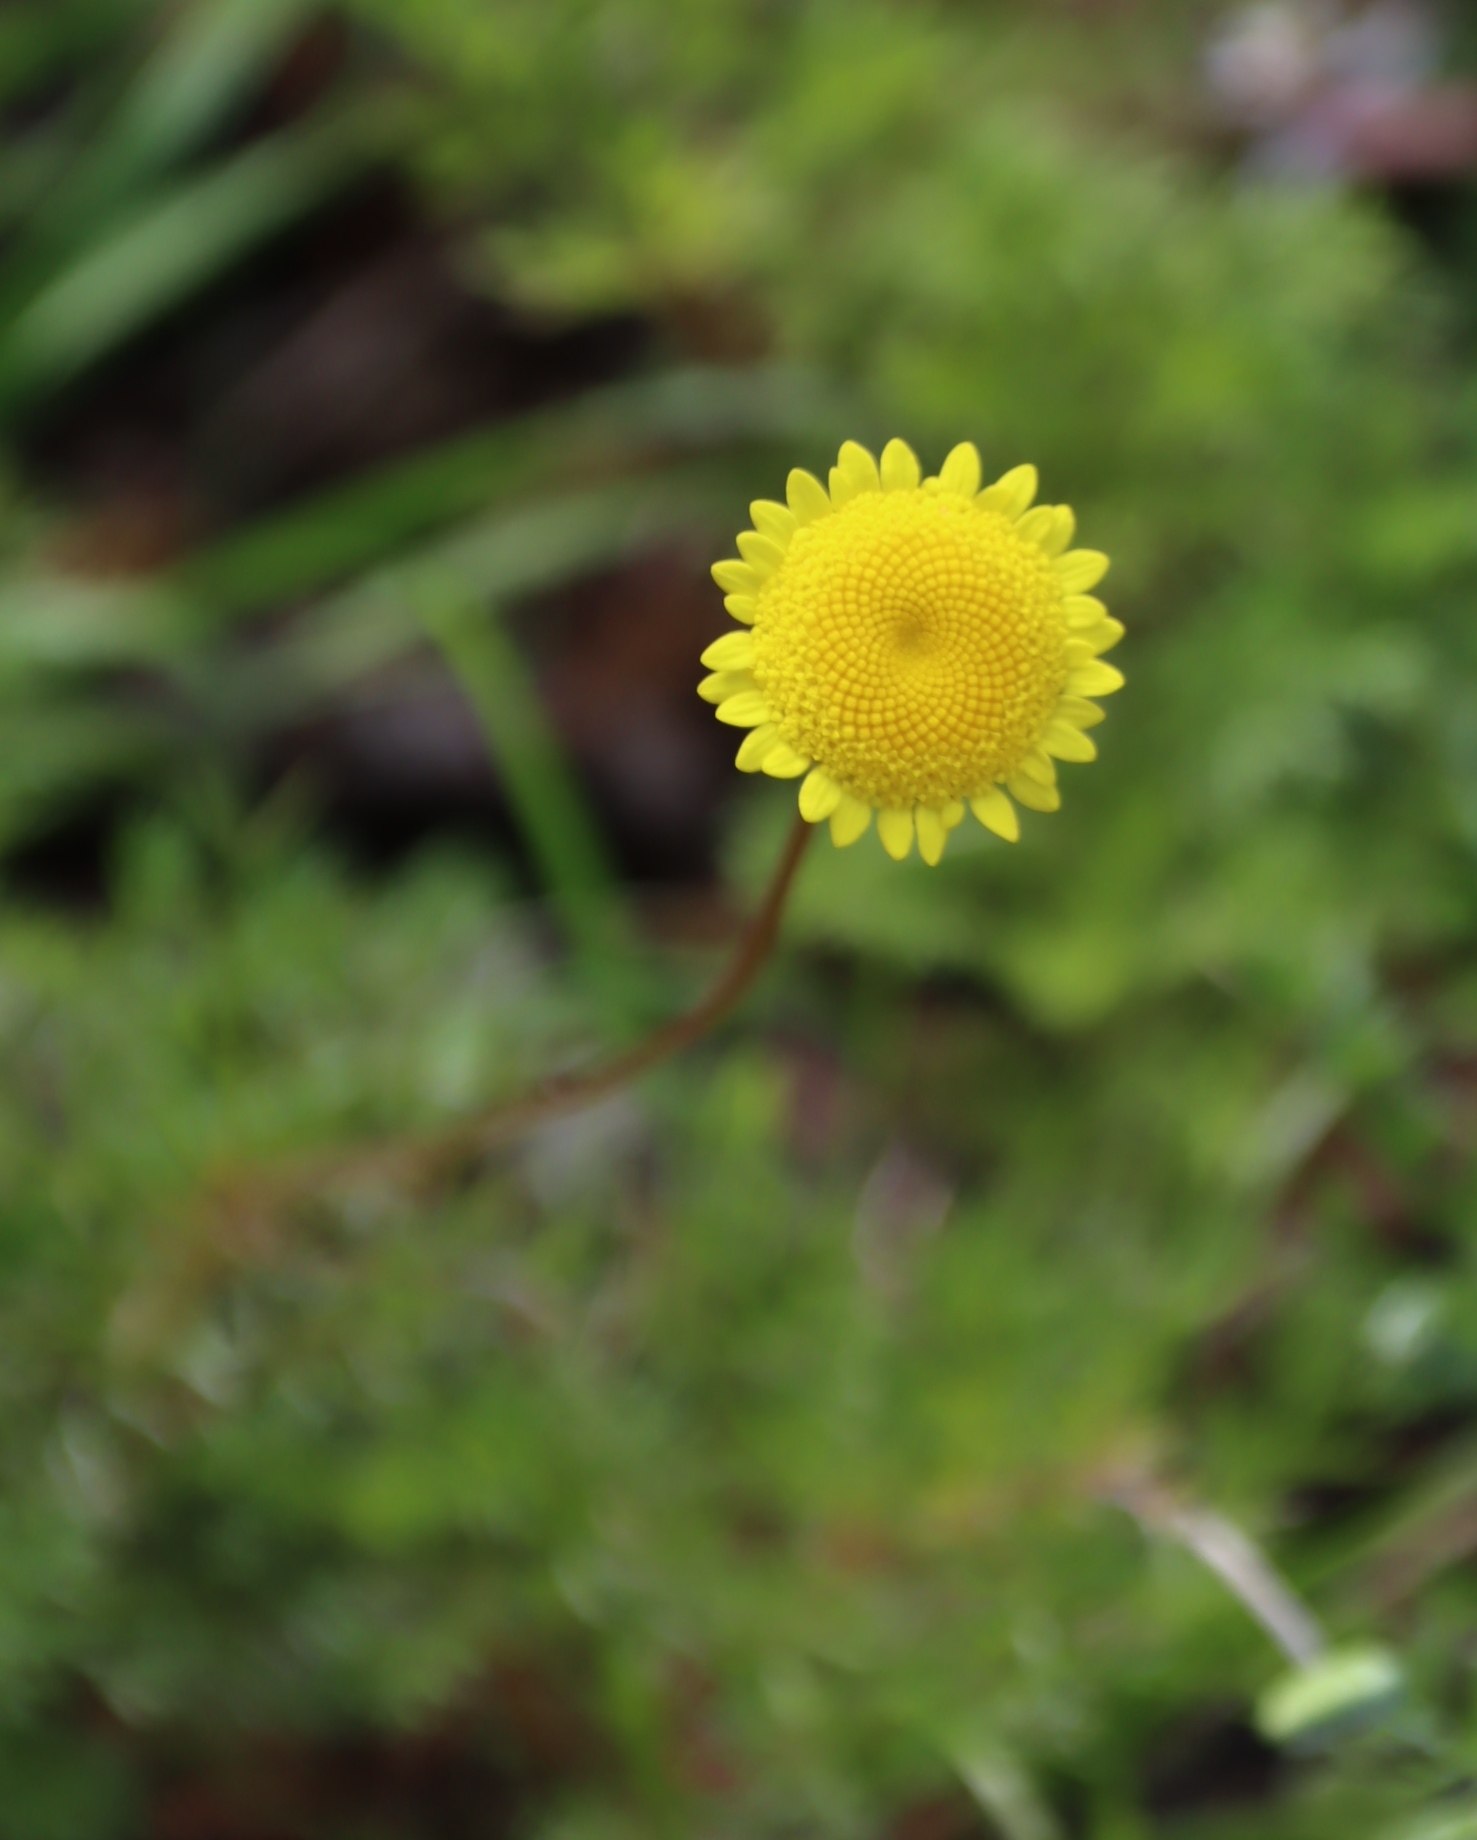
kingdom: Plantae
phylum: Tracheophyta
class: Magnoliopsida
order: Asterales
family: Asteraceae
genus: Cotula
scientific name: Cotula pruinosa
